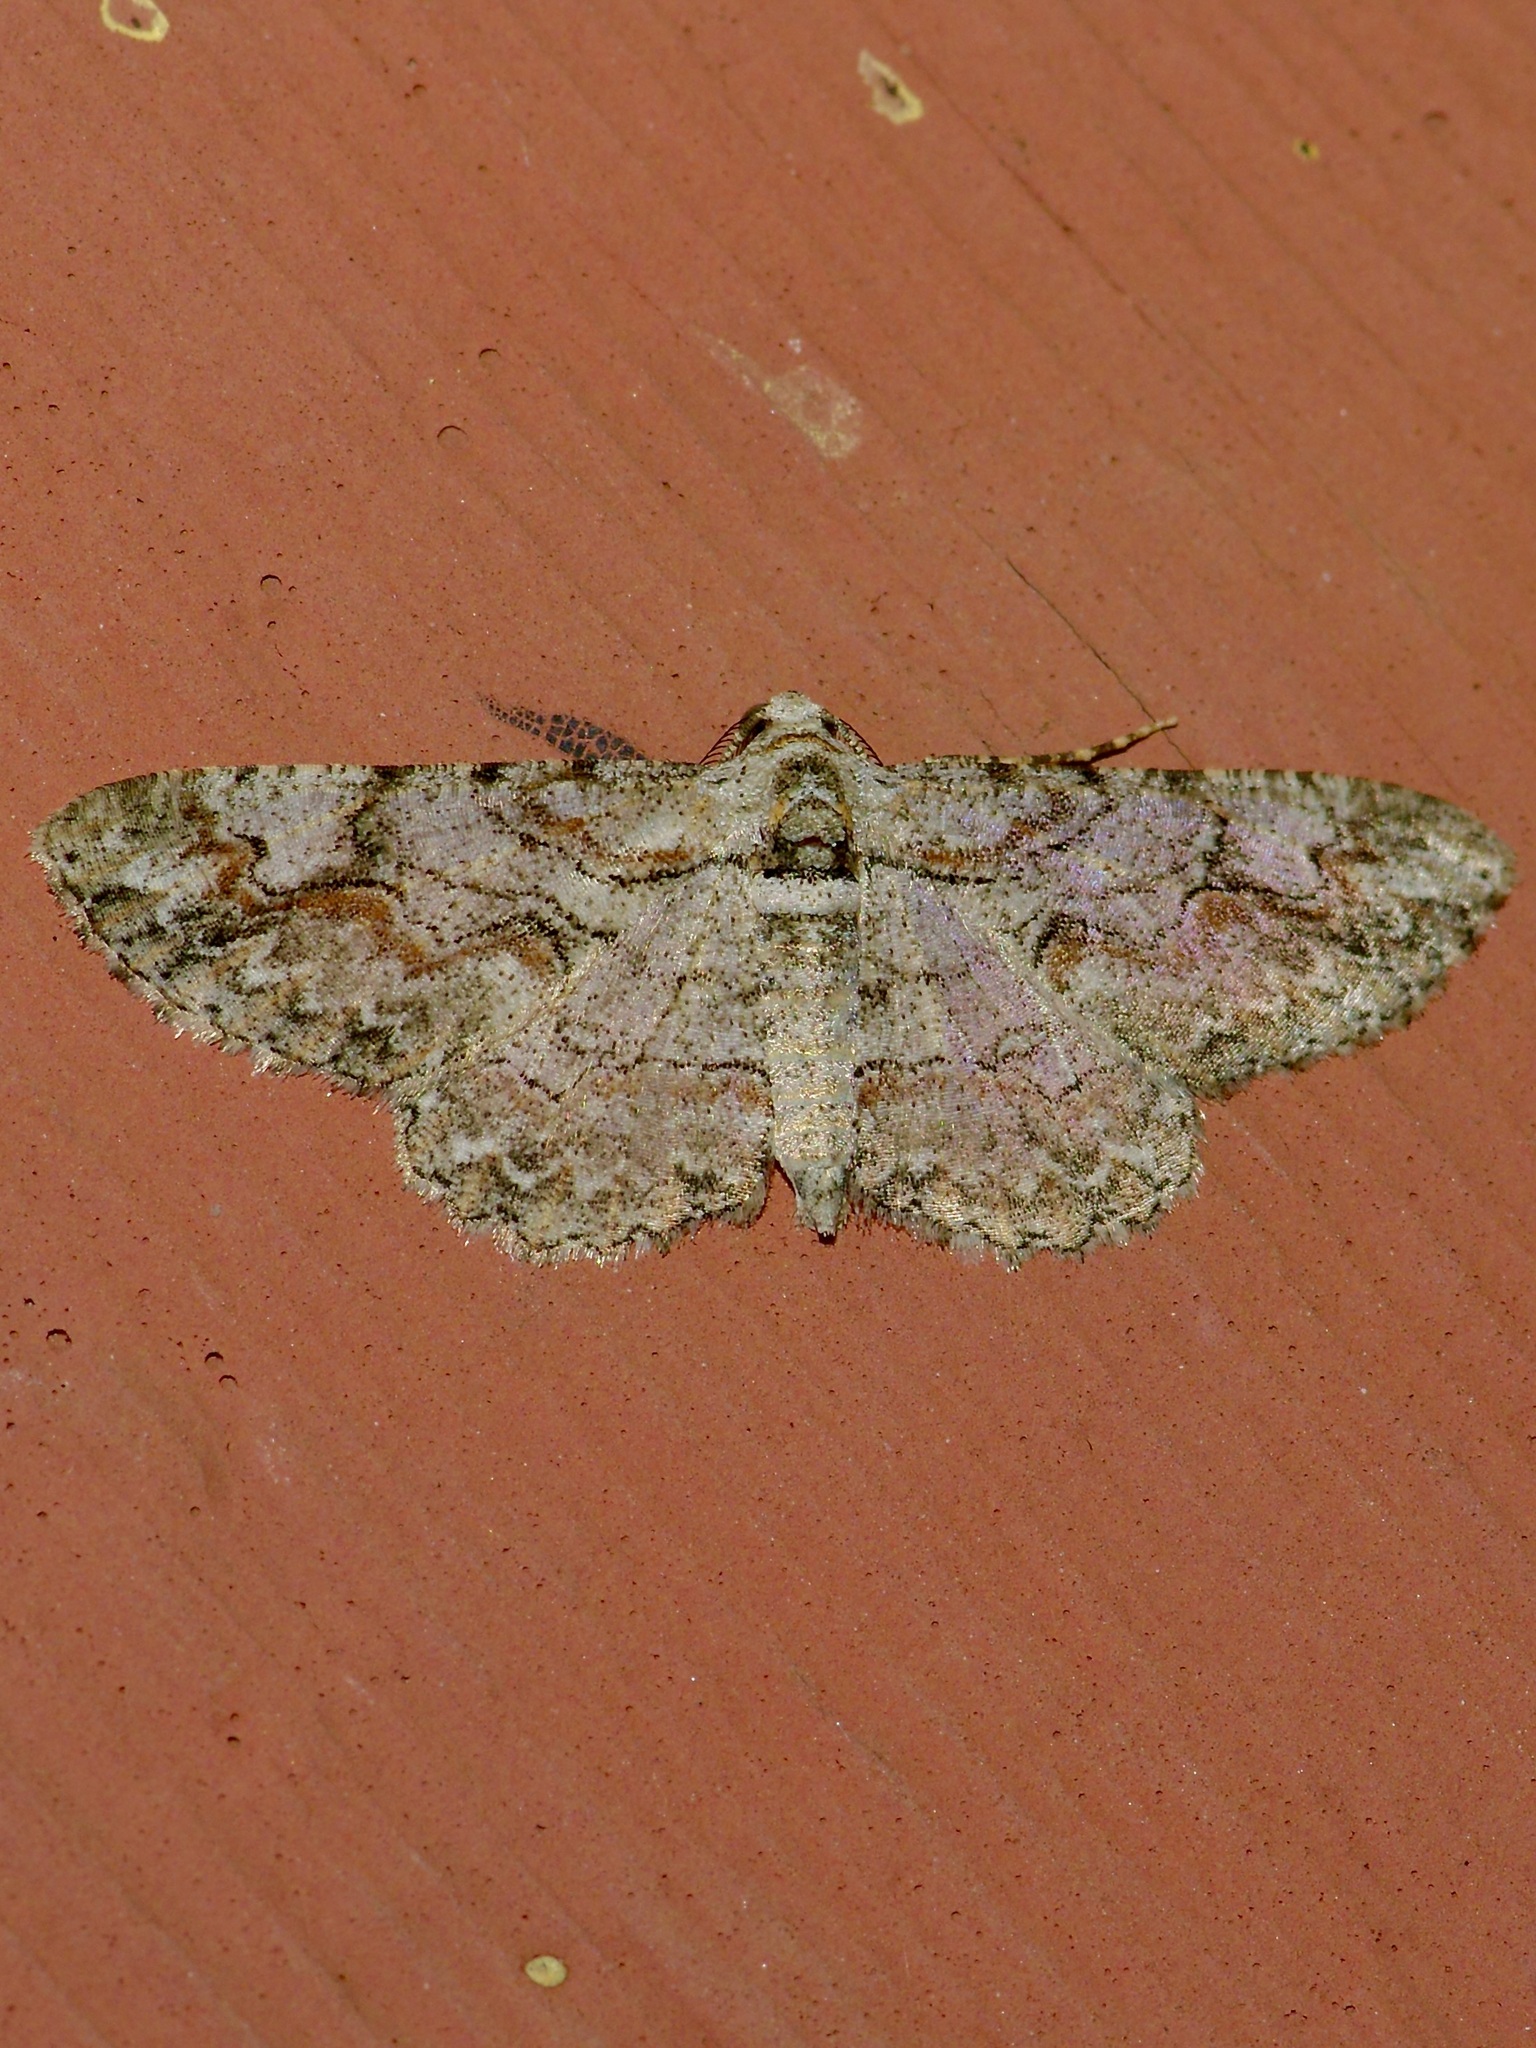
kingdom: Animalia
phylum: Arthropoda
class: Insecta
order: Lepidoptera
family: Geometridae
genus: Iridopsis
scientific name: Iridopsis defectaria
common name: Brown-shaded gray
